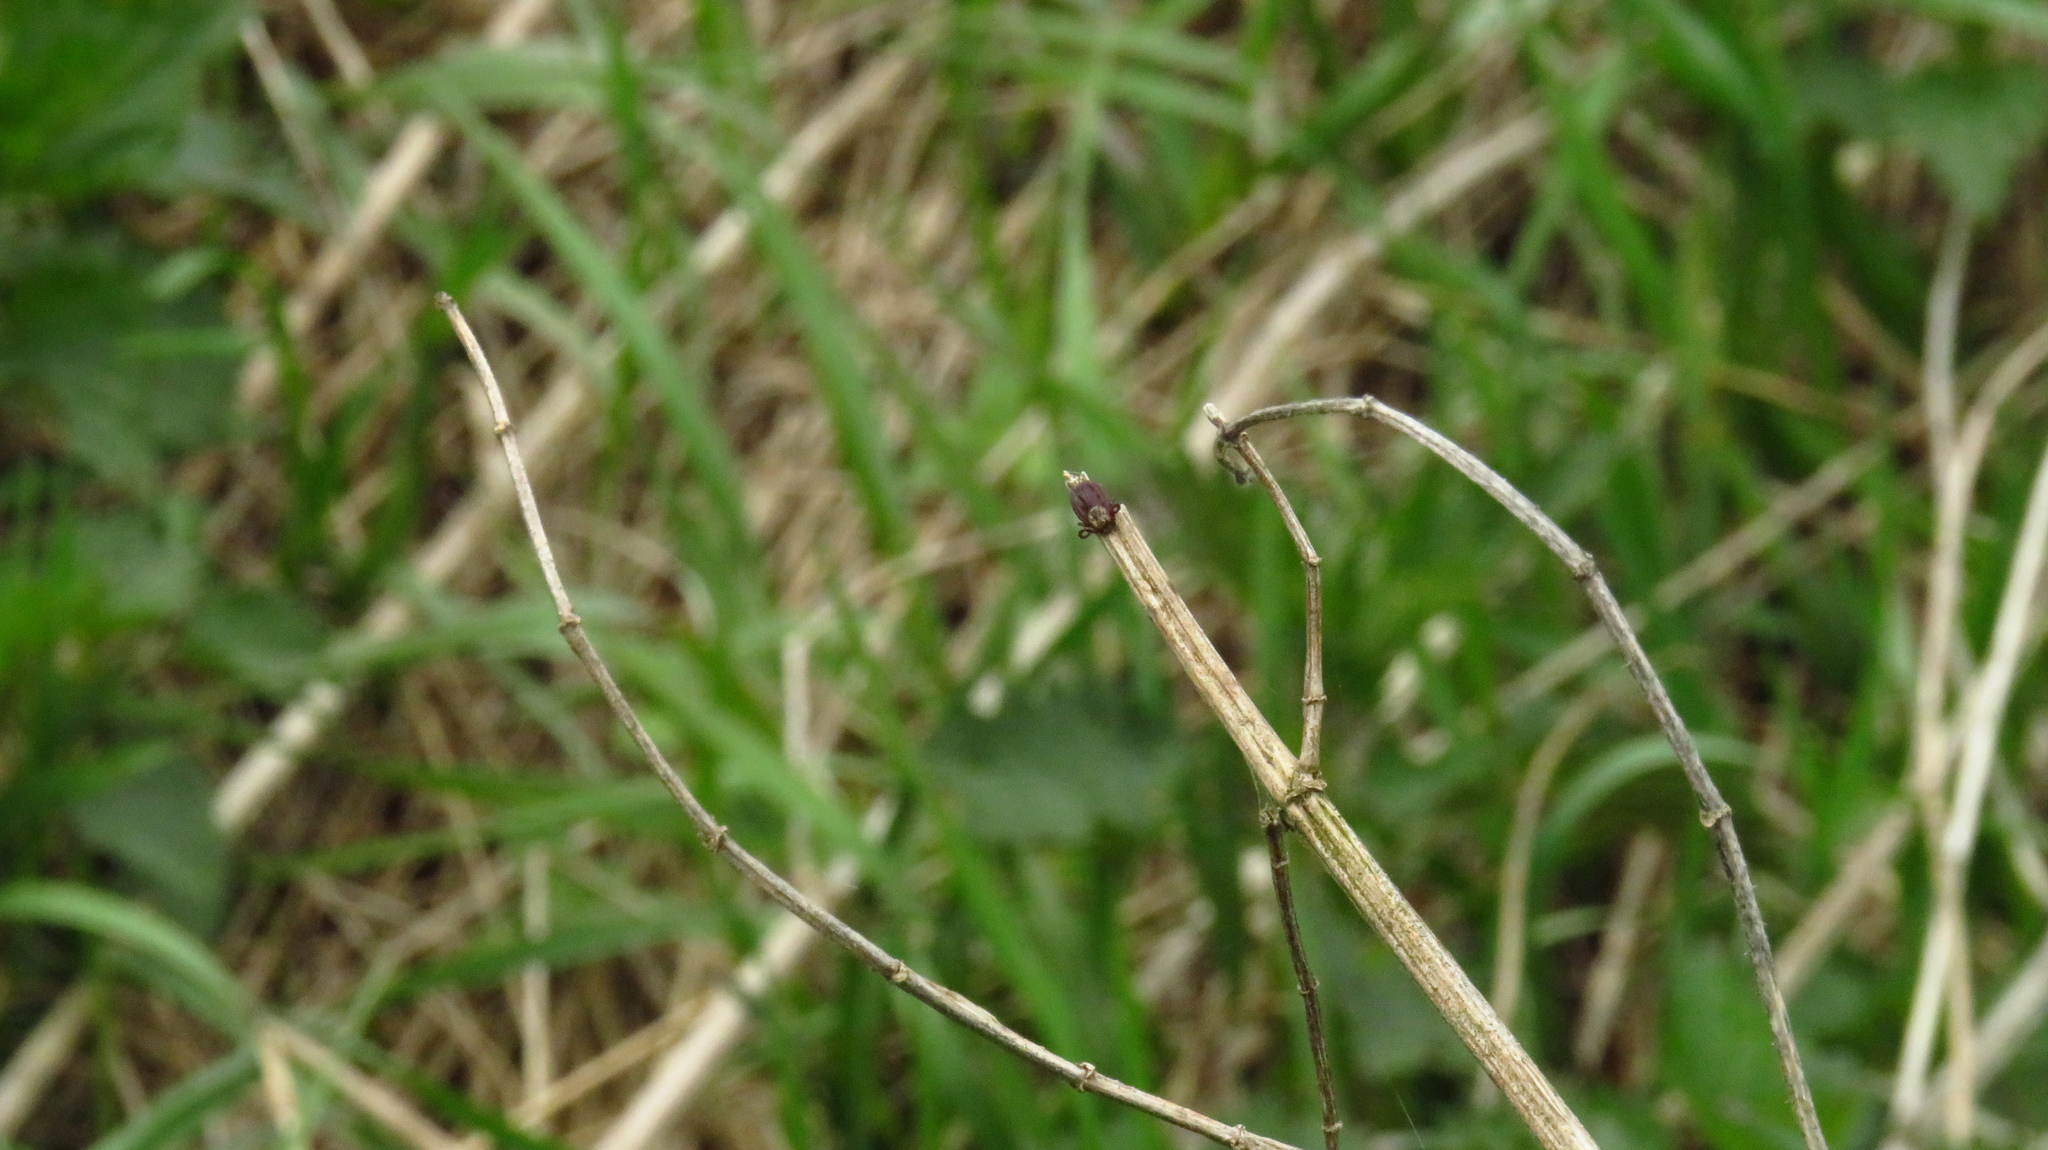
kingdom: Animalia
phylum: Arthropoda
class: Arachnida
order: Ixodida
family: Ixodidae
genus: Dermacentor
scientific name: Dermacentor reticulatus
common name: Ornate cow tick
